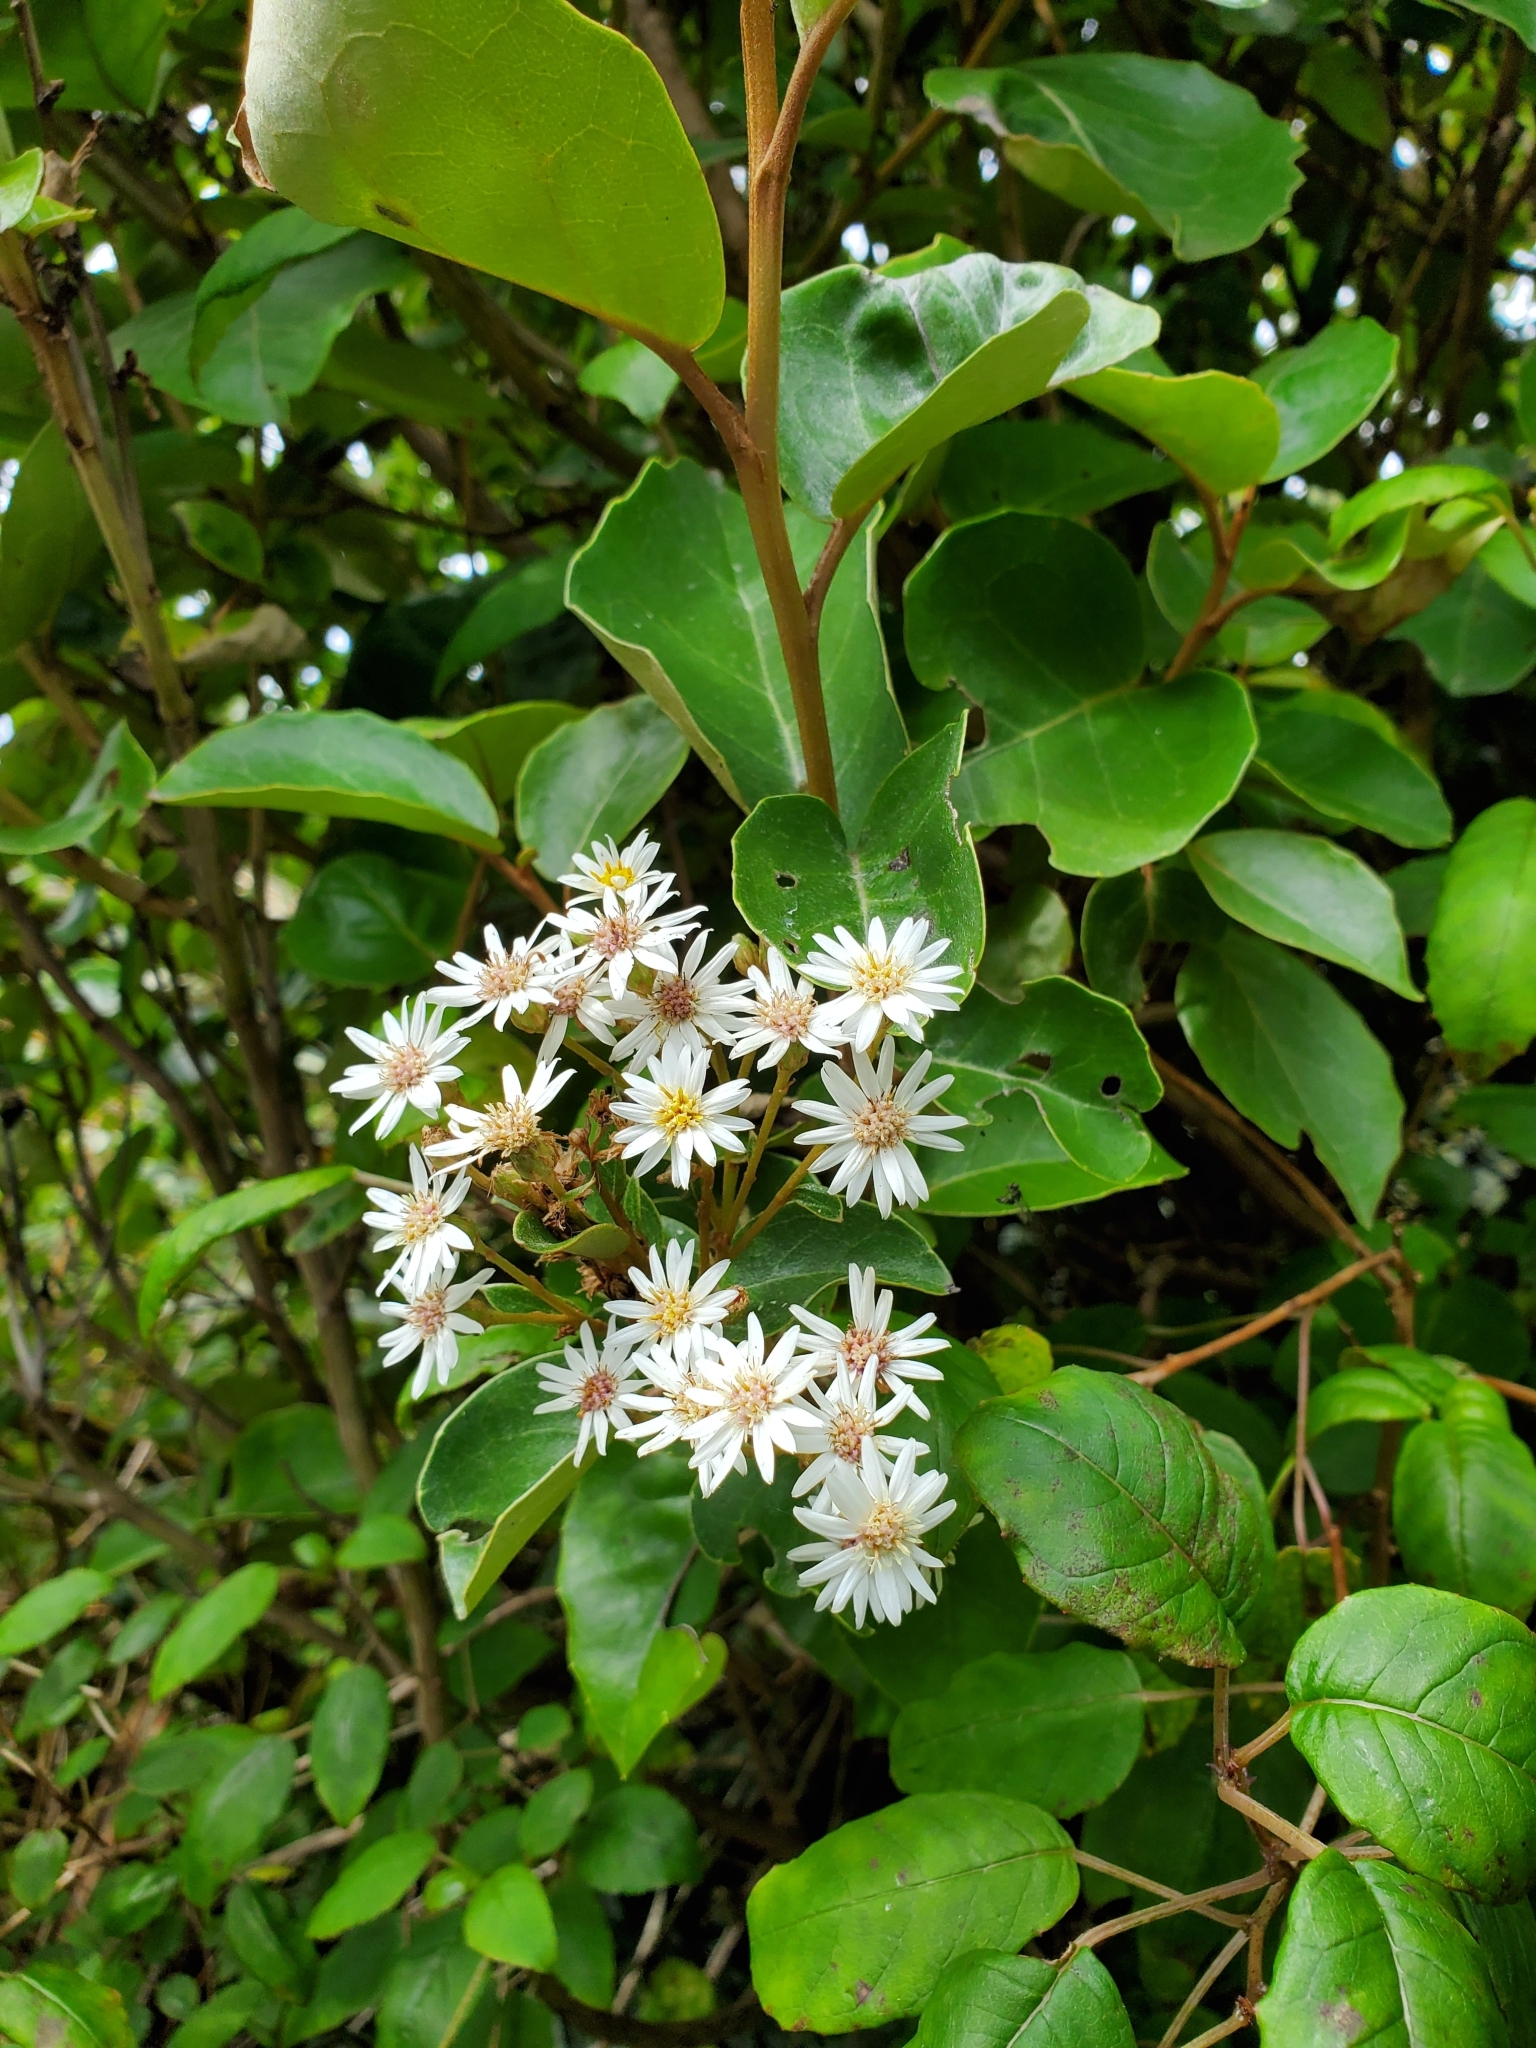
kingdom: Plantae
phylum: Tracheophyta
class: Magnoliopsida
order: Asterales
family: Asteraceae
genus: Olearia
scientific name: Olearia arborescens
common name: Glossy tree daisy
